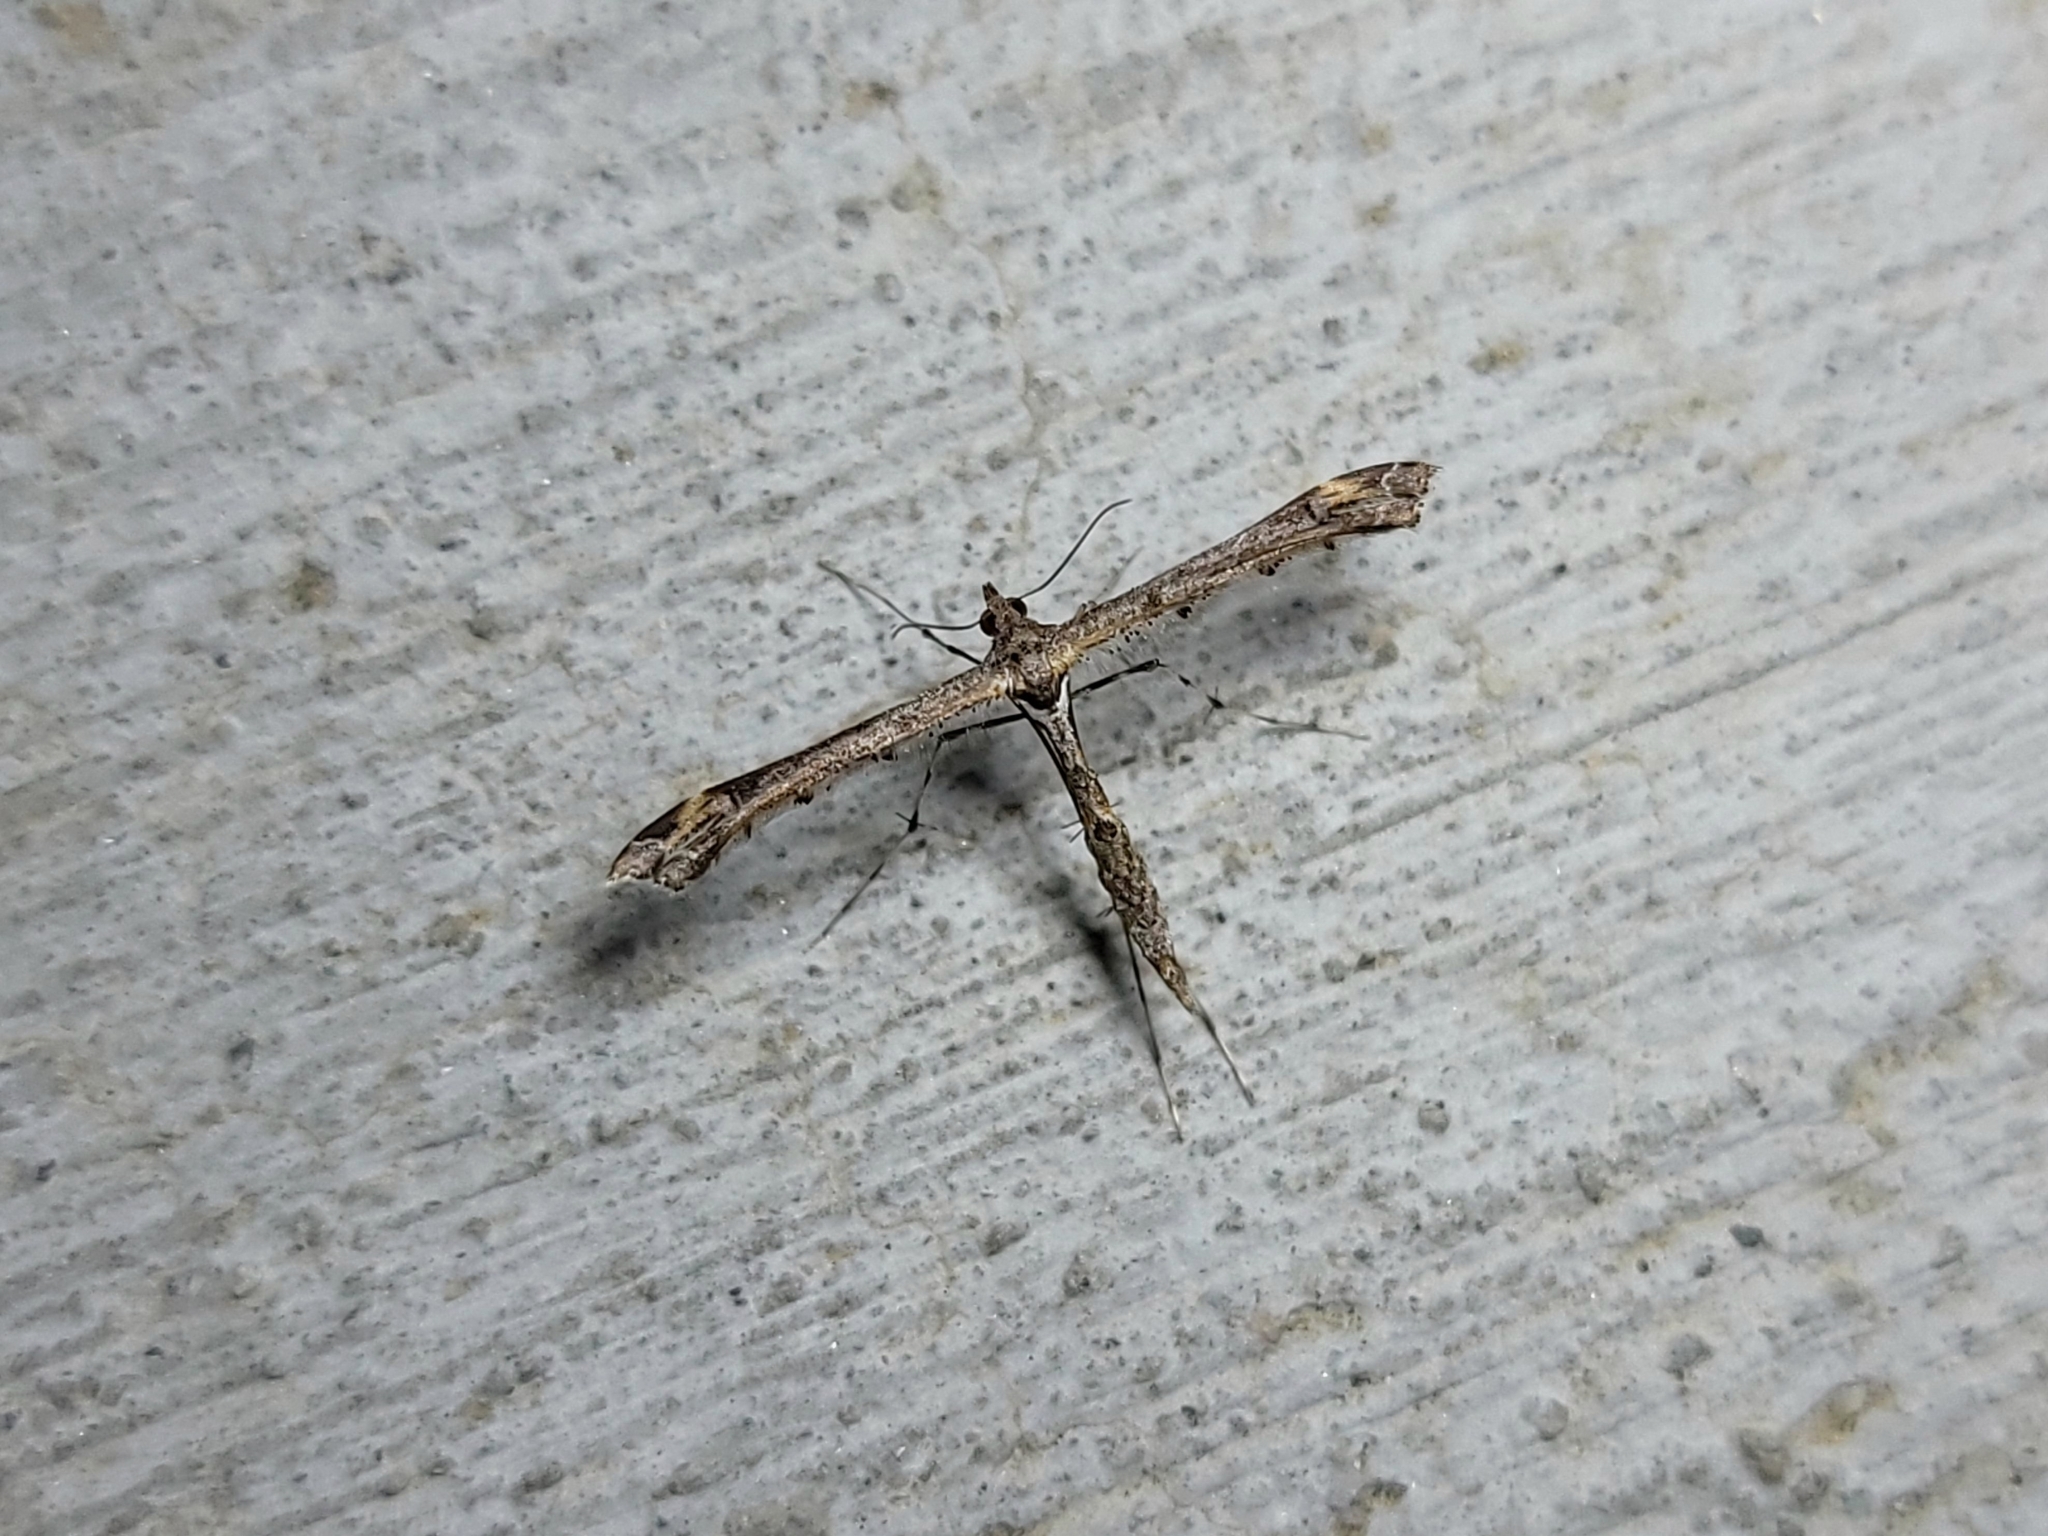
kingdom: Animalia
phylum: Arthropoda
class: Insecta
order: Lepidoptera
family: Pterophoridae
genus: Anstenoptilia
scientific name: Anstenoptilia marmarodactyla
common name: Moth
